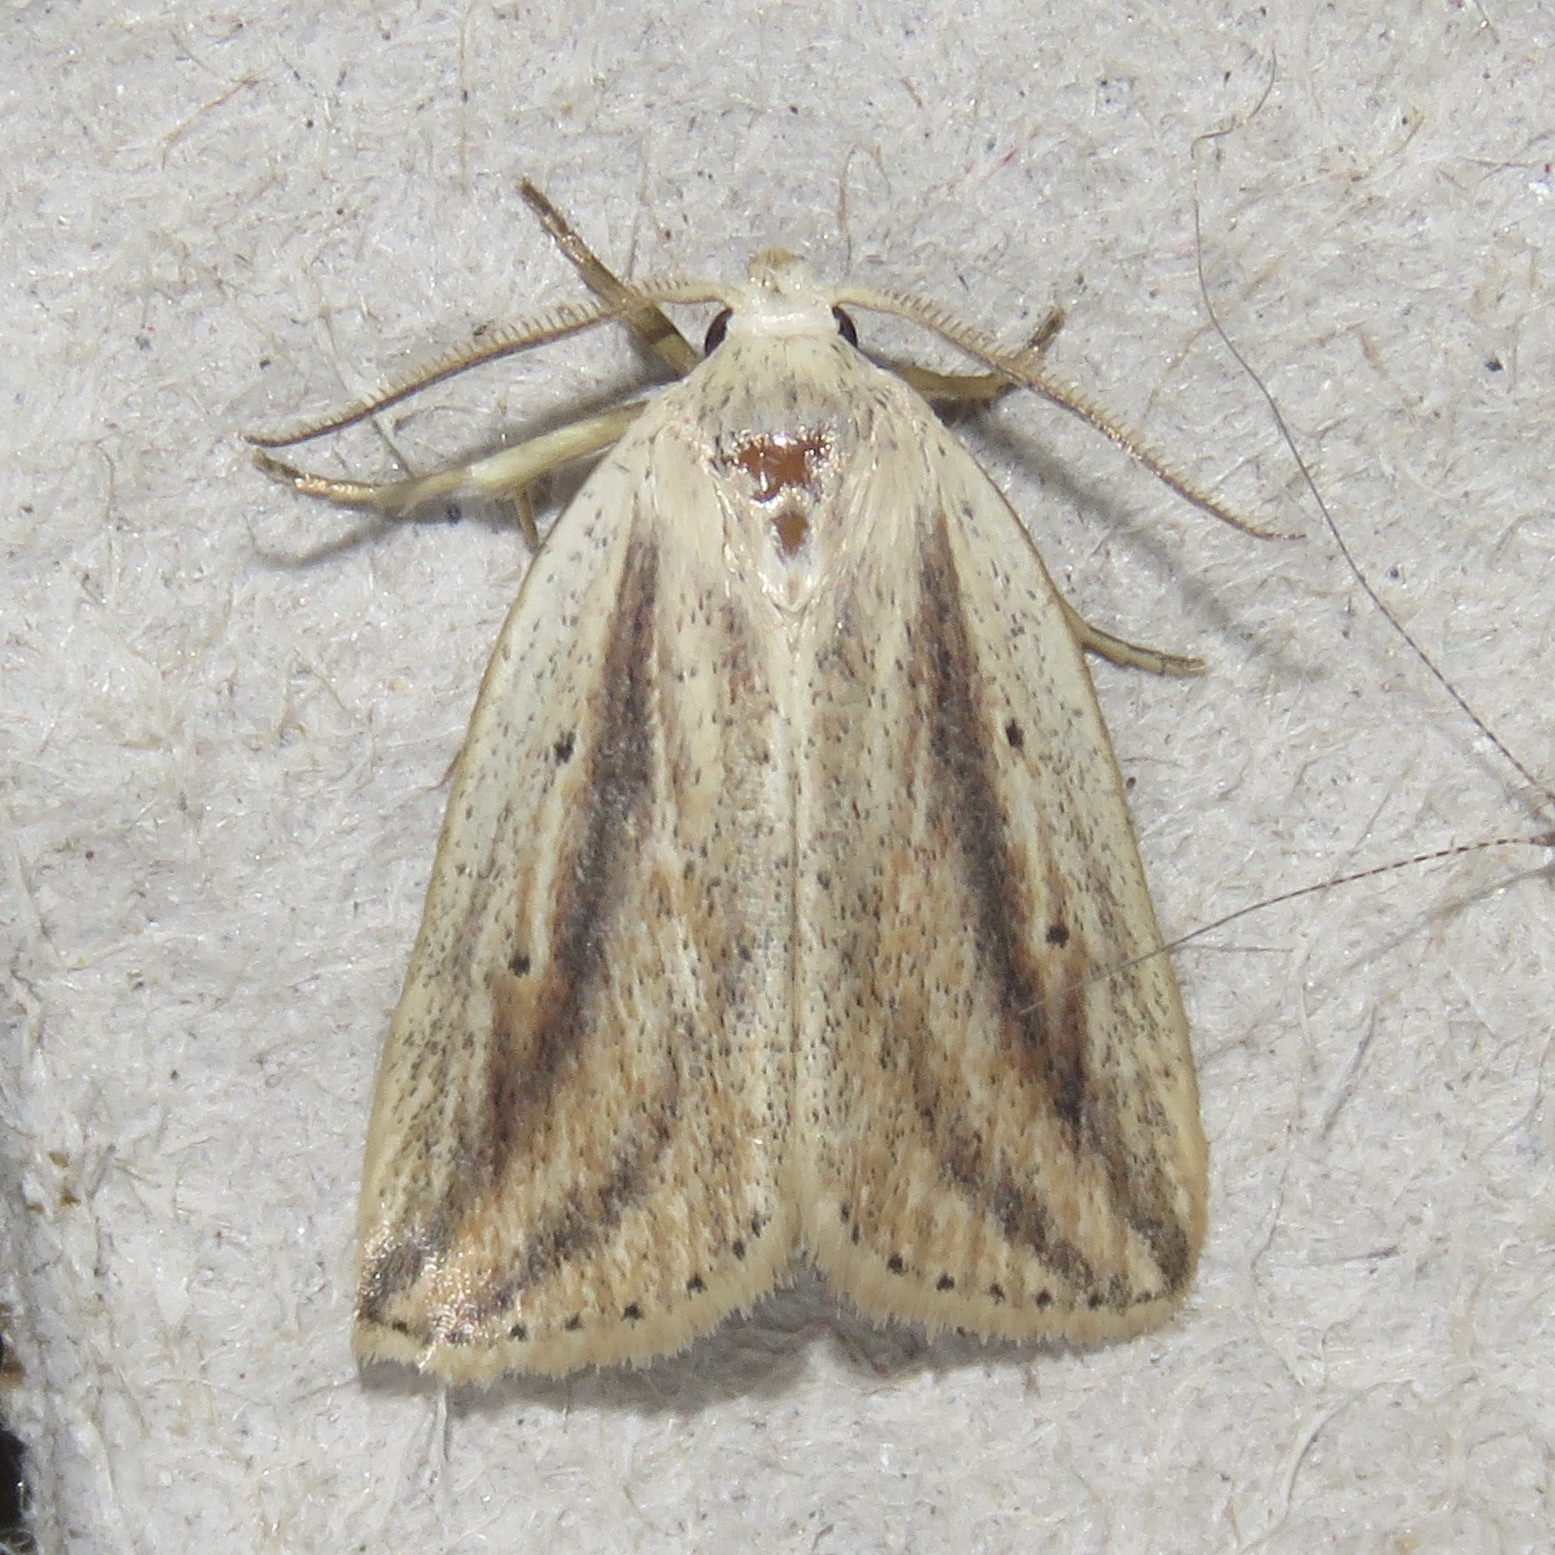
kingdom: Animalia
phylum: Arthropoda
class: Insecta
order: Lepidoptera
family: Noctuidae
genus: Amolita
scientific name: Amolita fessa
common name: Feeble grass moth
